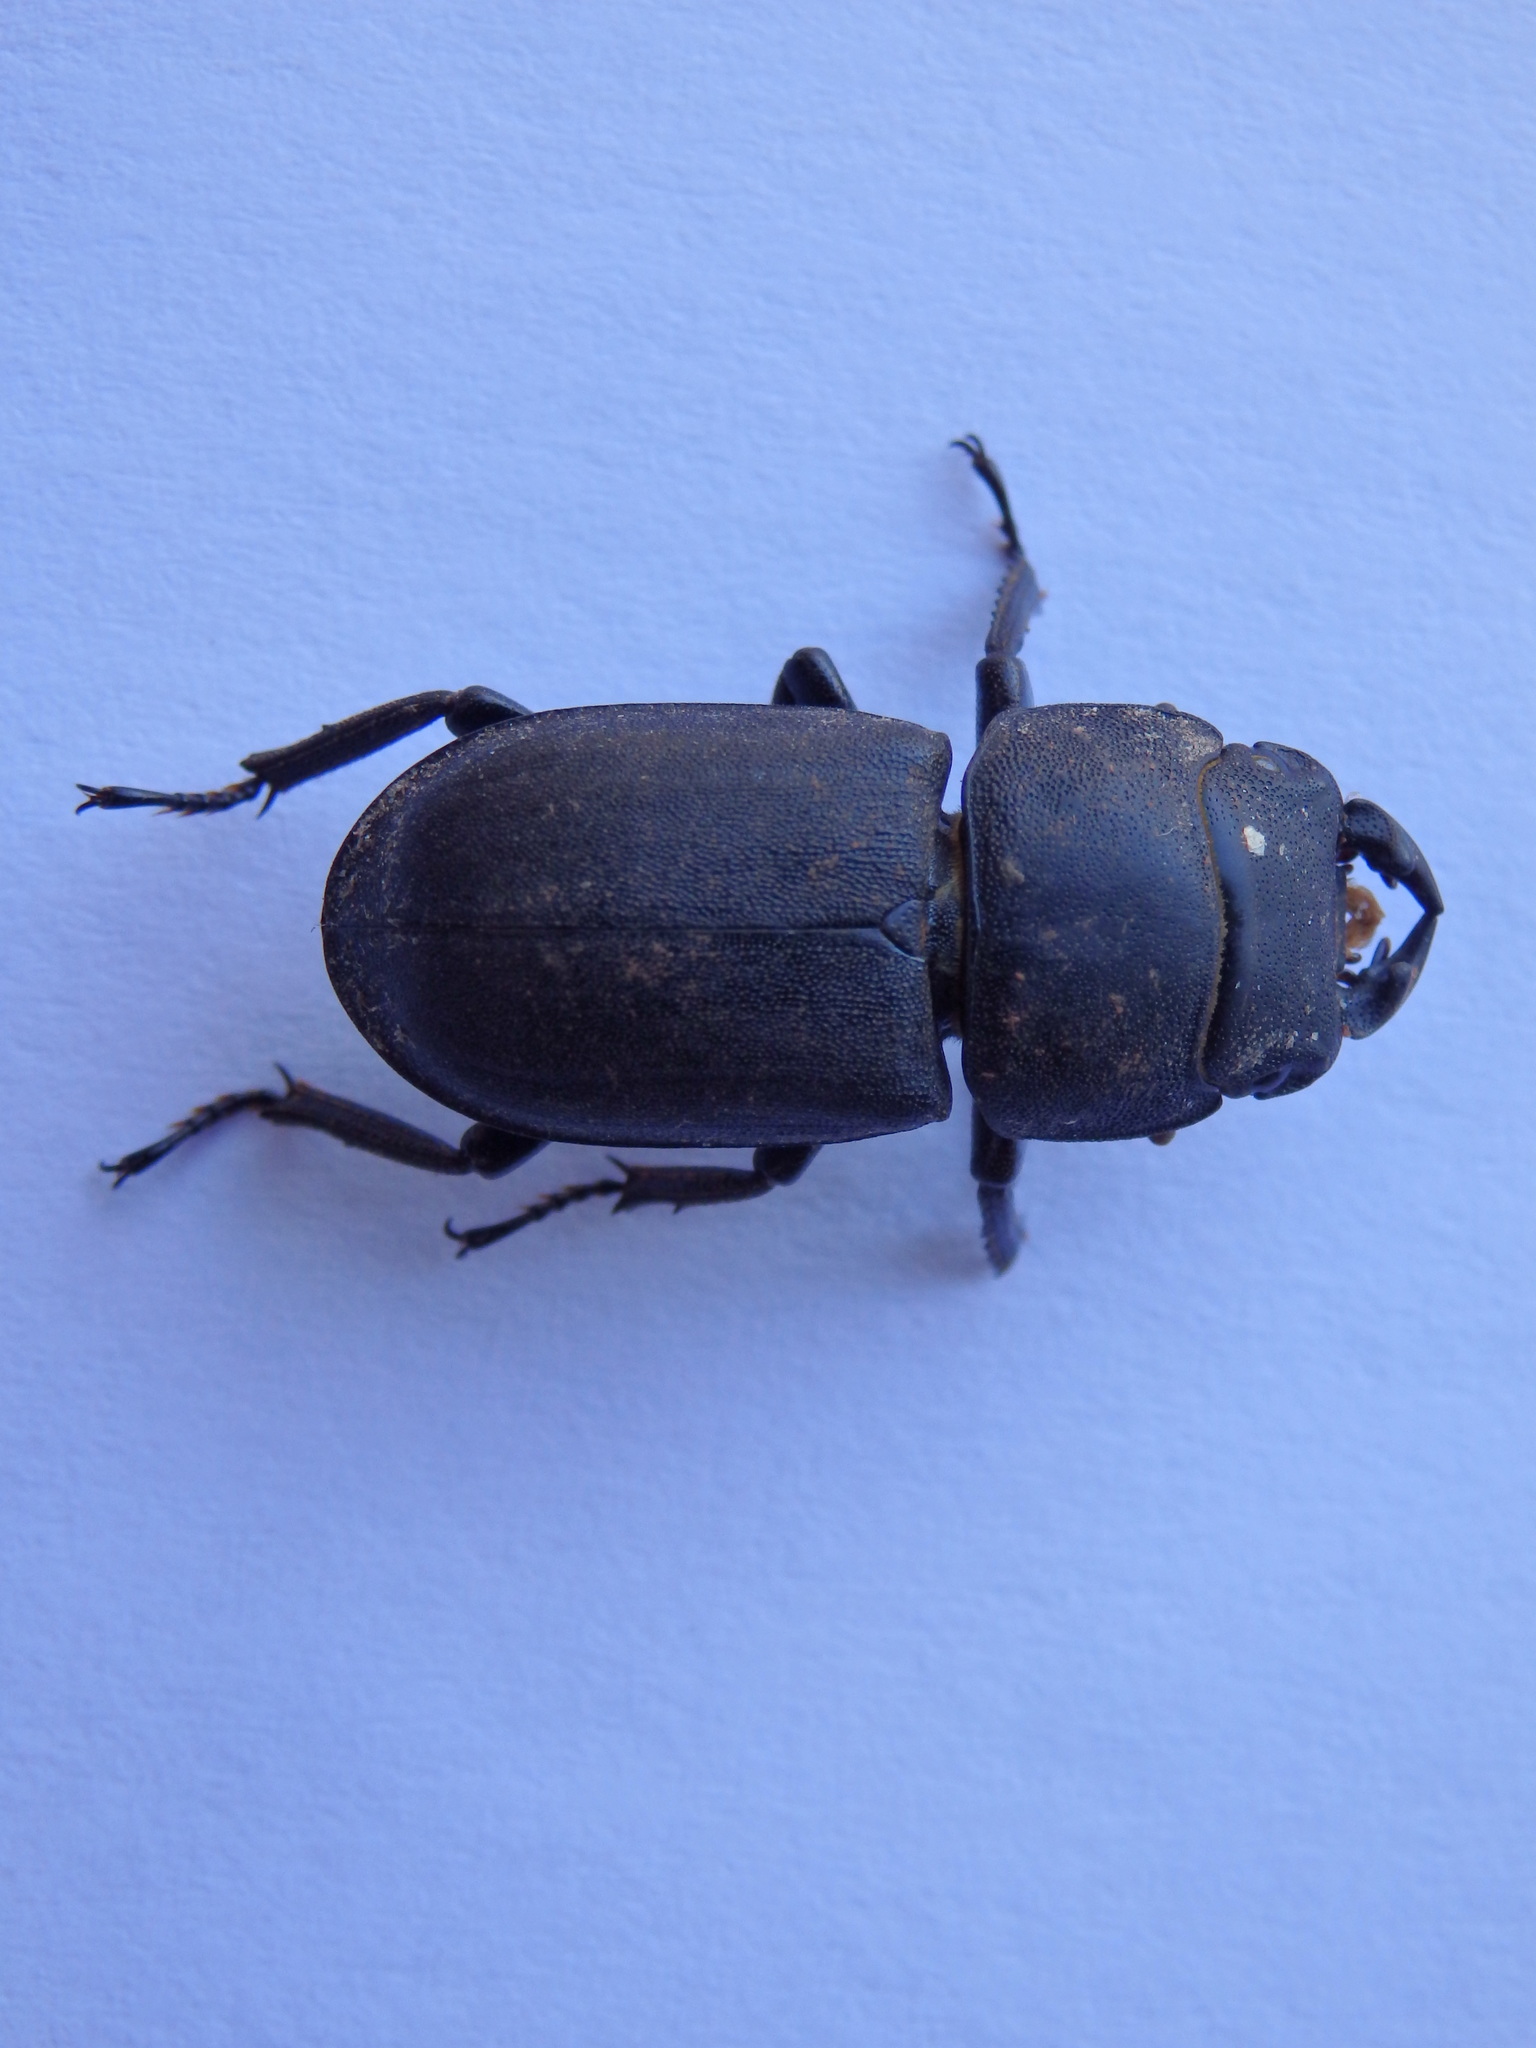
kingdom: Animalia
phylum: Arthropoda
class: Insecta
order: Coleoptera
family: Lucanidae
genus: Dorcus
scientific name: Dorcus parallelipipedus
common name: Lesser stag beetle
